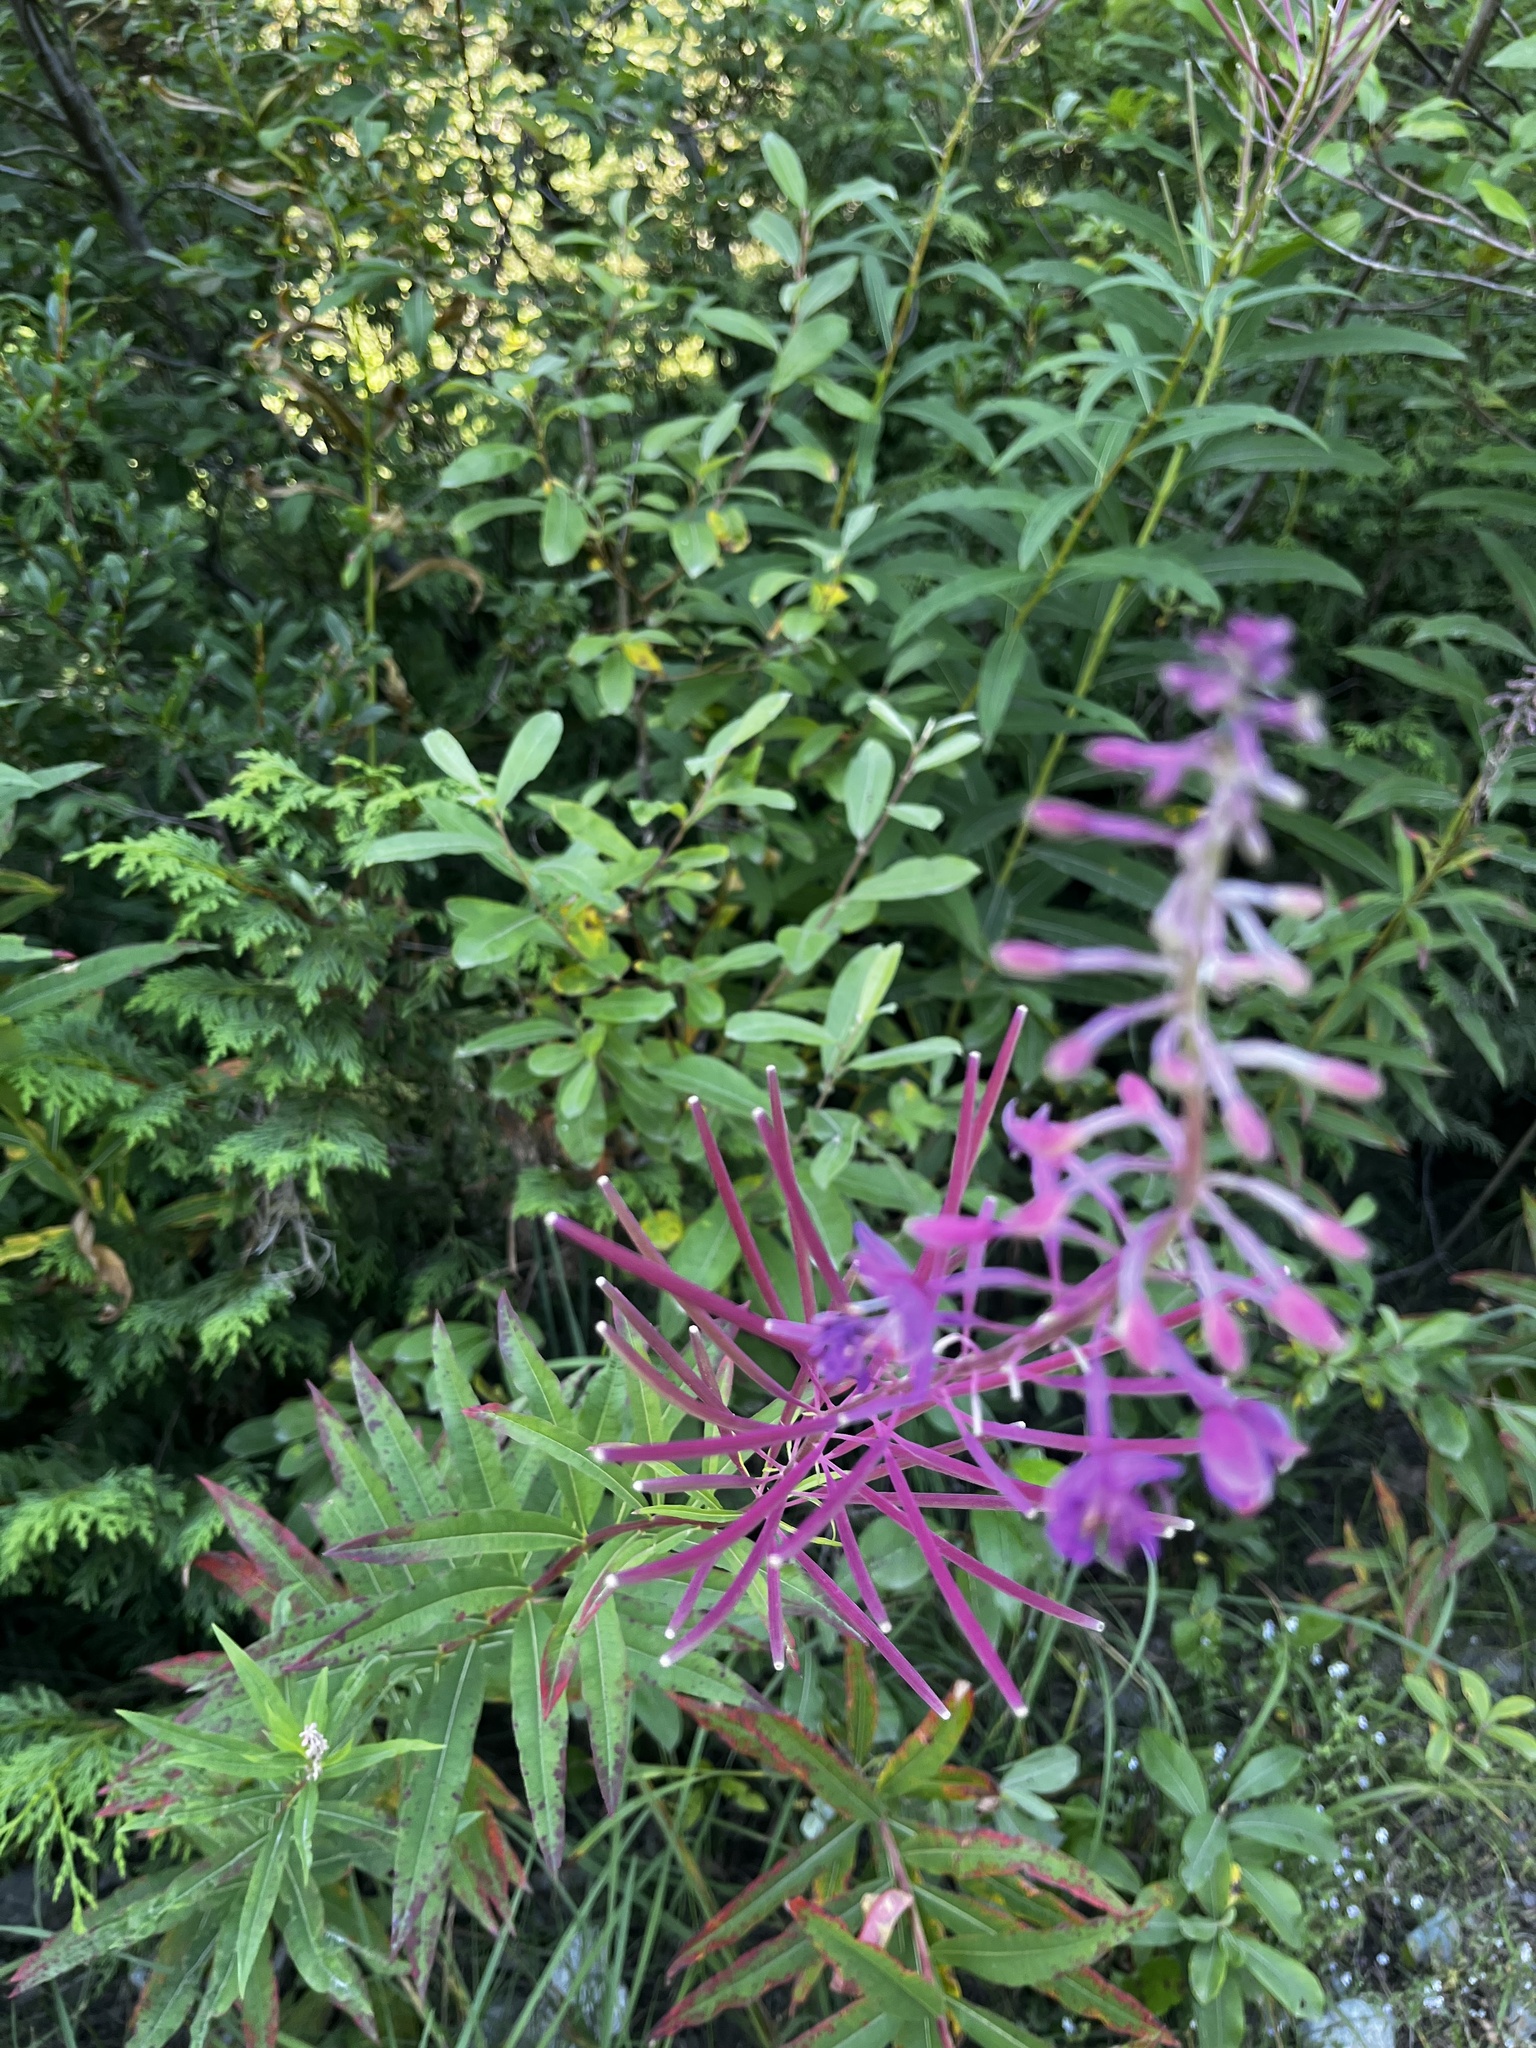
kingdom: Plantae
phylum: Tracheophyta
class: Magnoliopsida
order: Myrtales
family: Onagraceae
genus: Chamaenerion
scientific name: Chamaenerion angustifolium
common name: Fireweed
